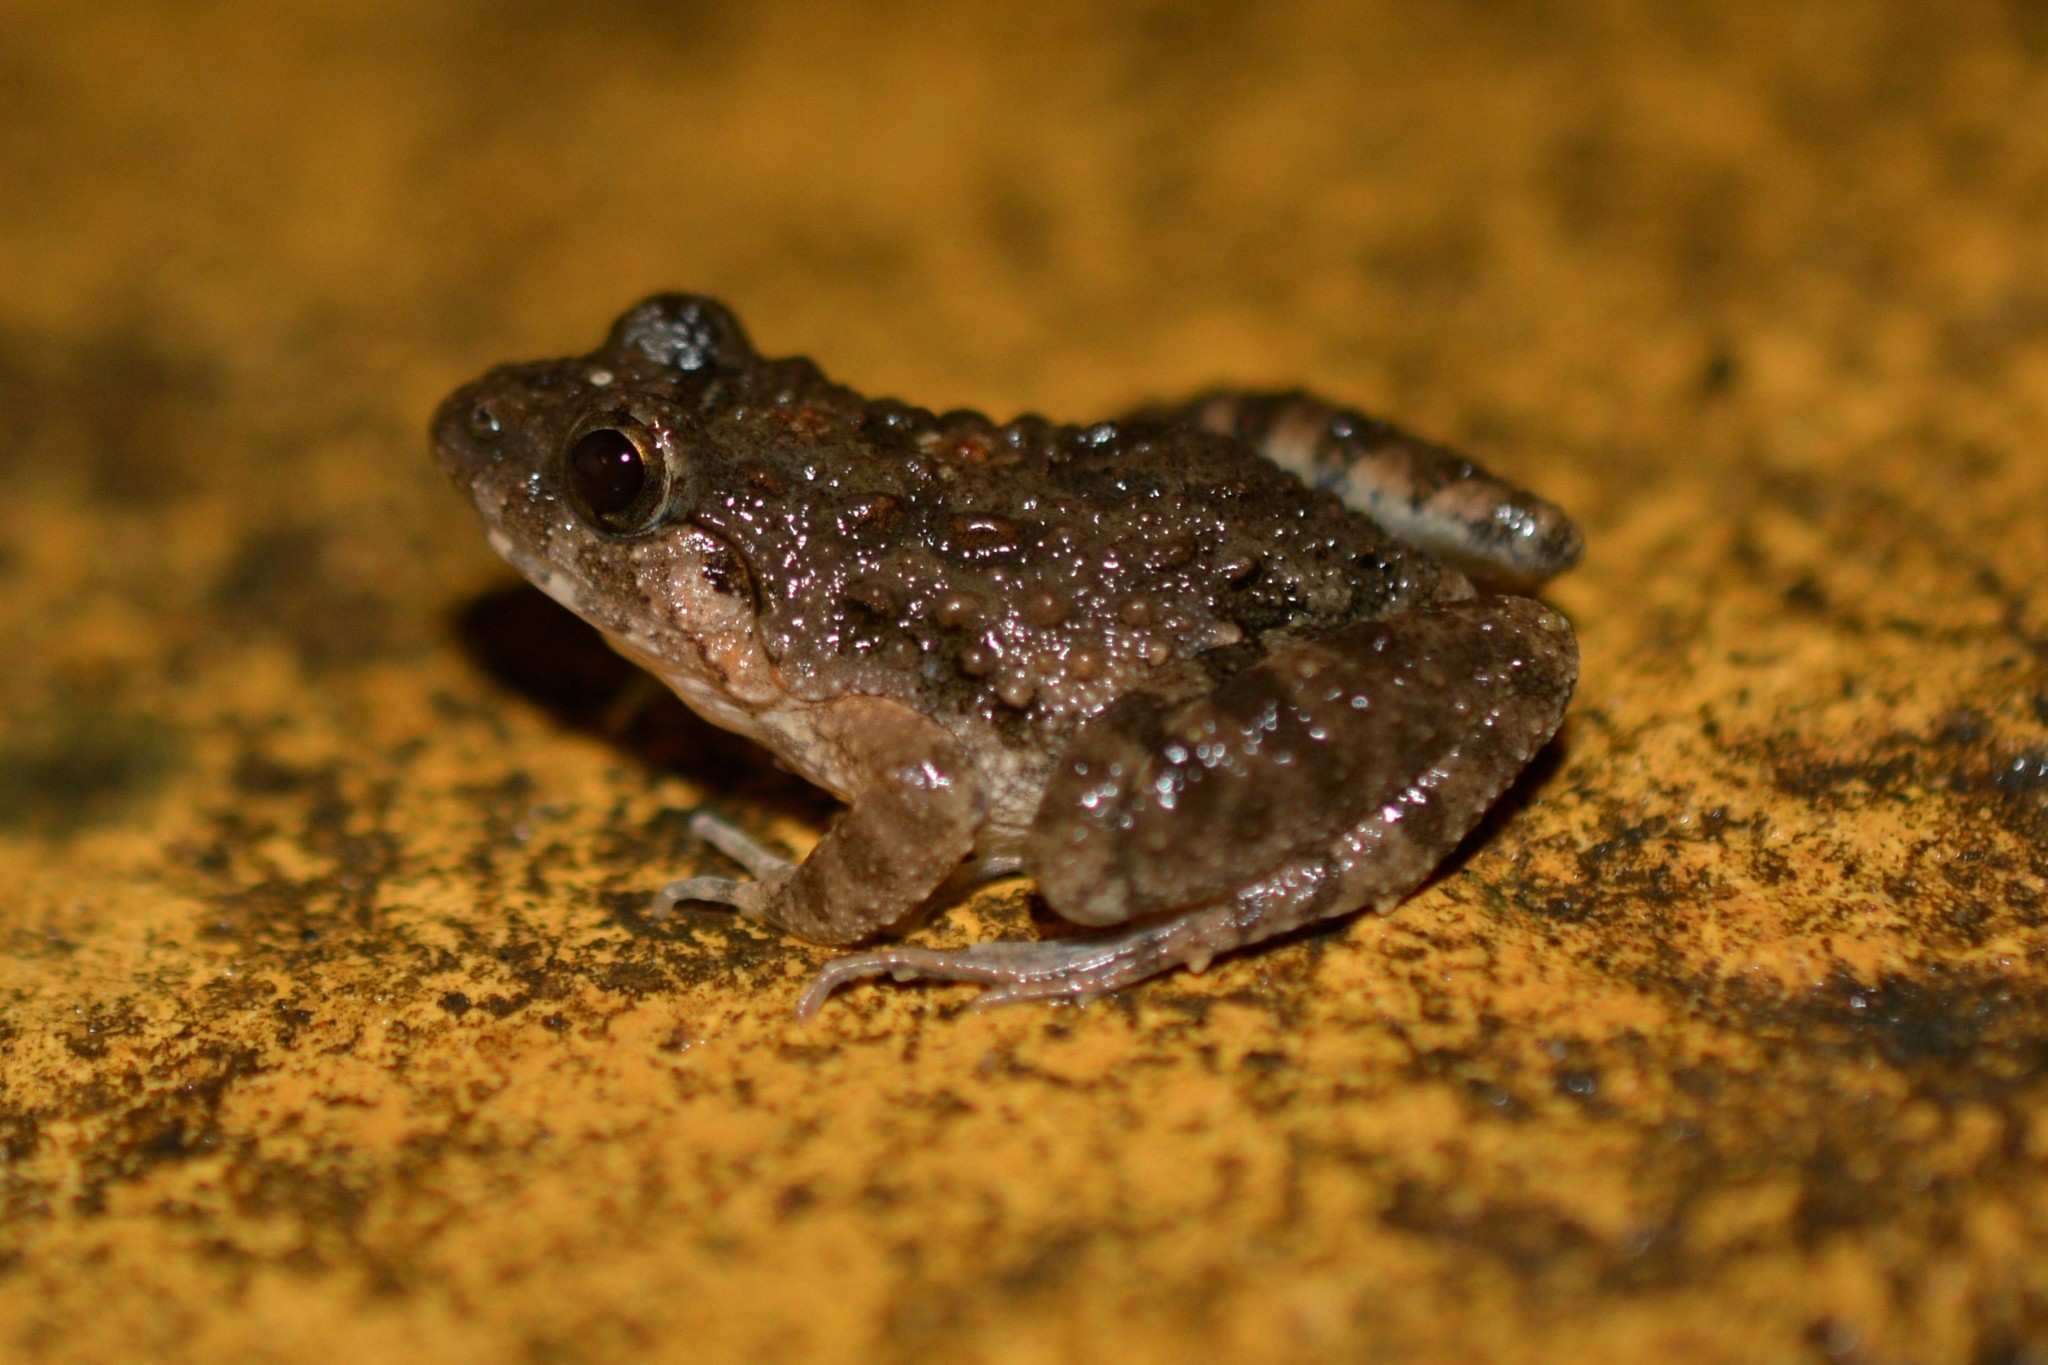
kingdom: Animalia
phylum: Chordata
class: Amphibia
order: Anura
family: Dicroglossidae
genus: Minervarya
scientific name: Minervarya mysorensis
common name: Mysore frog
